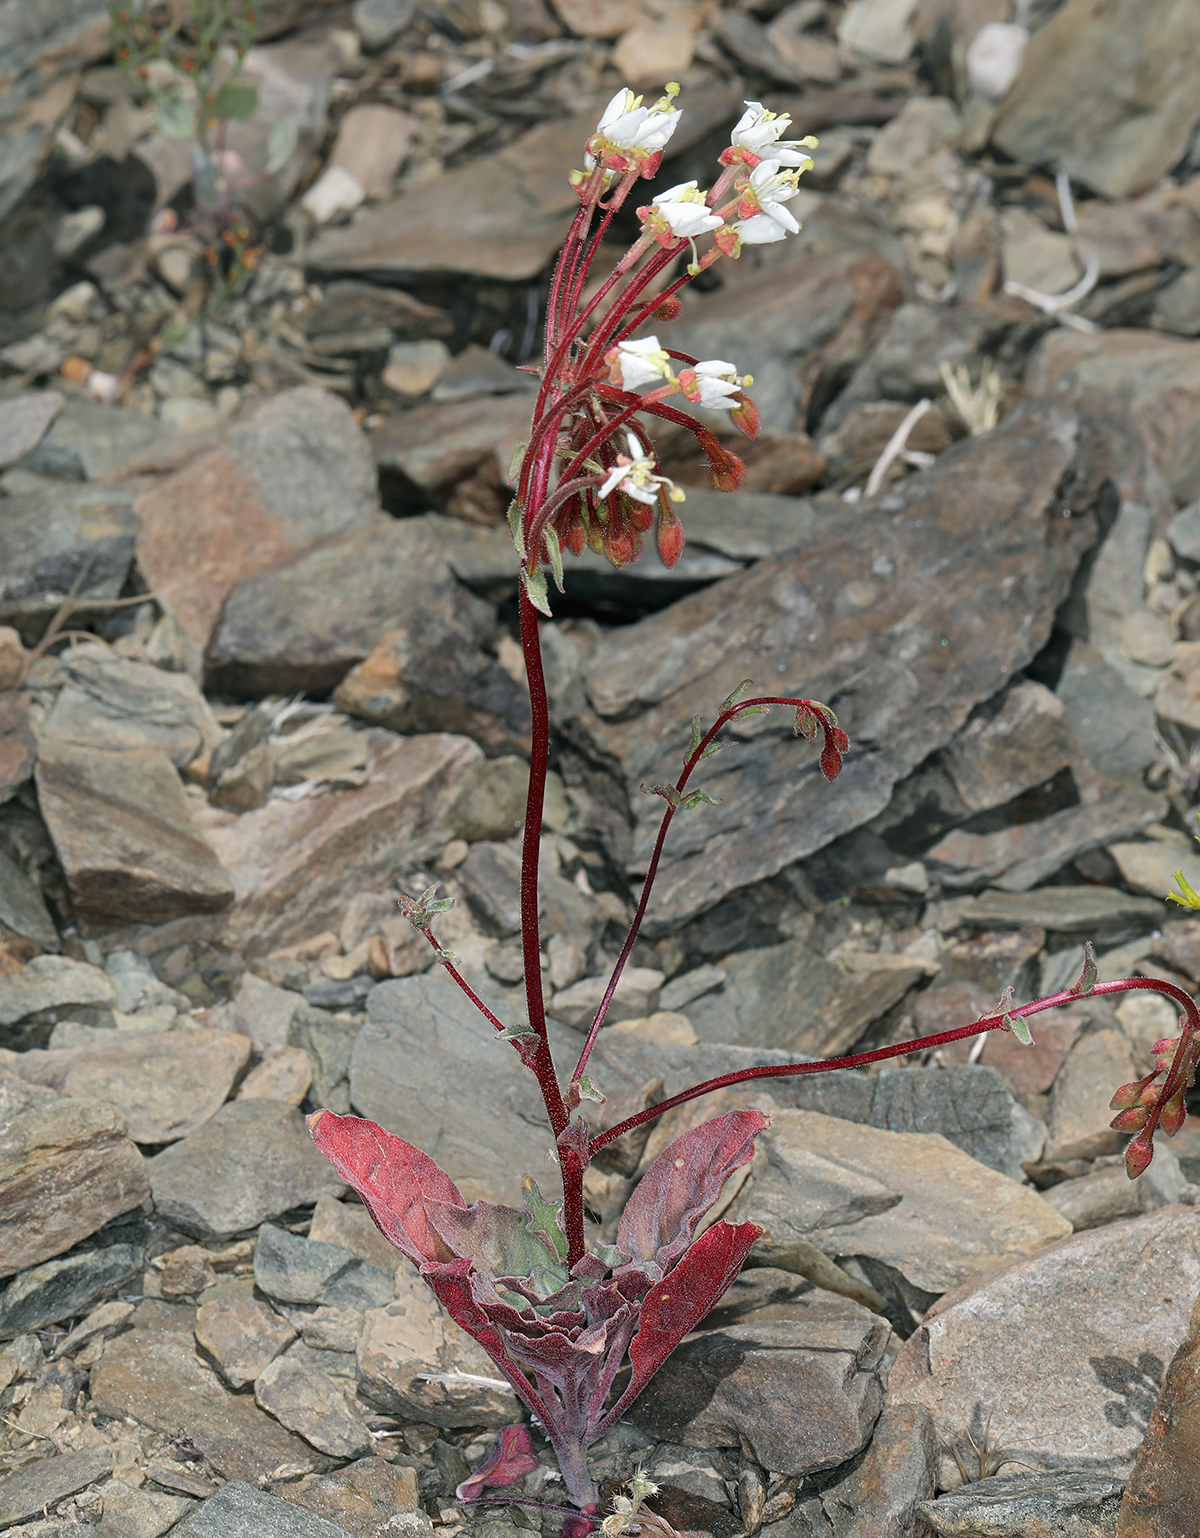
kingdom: Plantae
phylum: Tracheophyta
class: Magnoliopsida
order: Myrtales
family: Onagraceae
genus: Eremothera
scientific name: Eremothera boothii
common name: Booth's evening primrose
